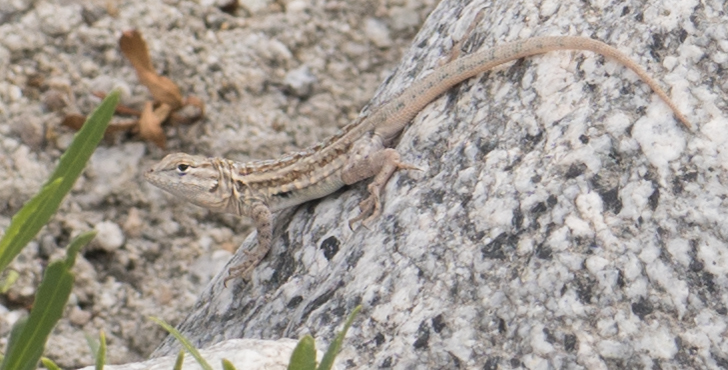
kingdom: Animalia
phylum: Chordata
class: Squamata
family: Phrynosomatidae
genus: Uta
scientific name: Uta stansburiana
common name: Side-blotched lizard
